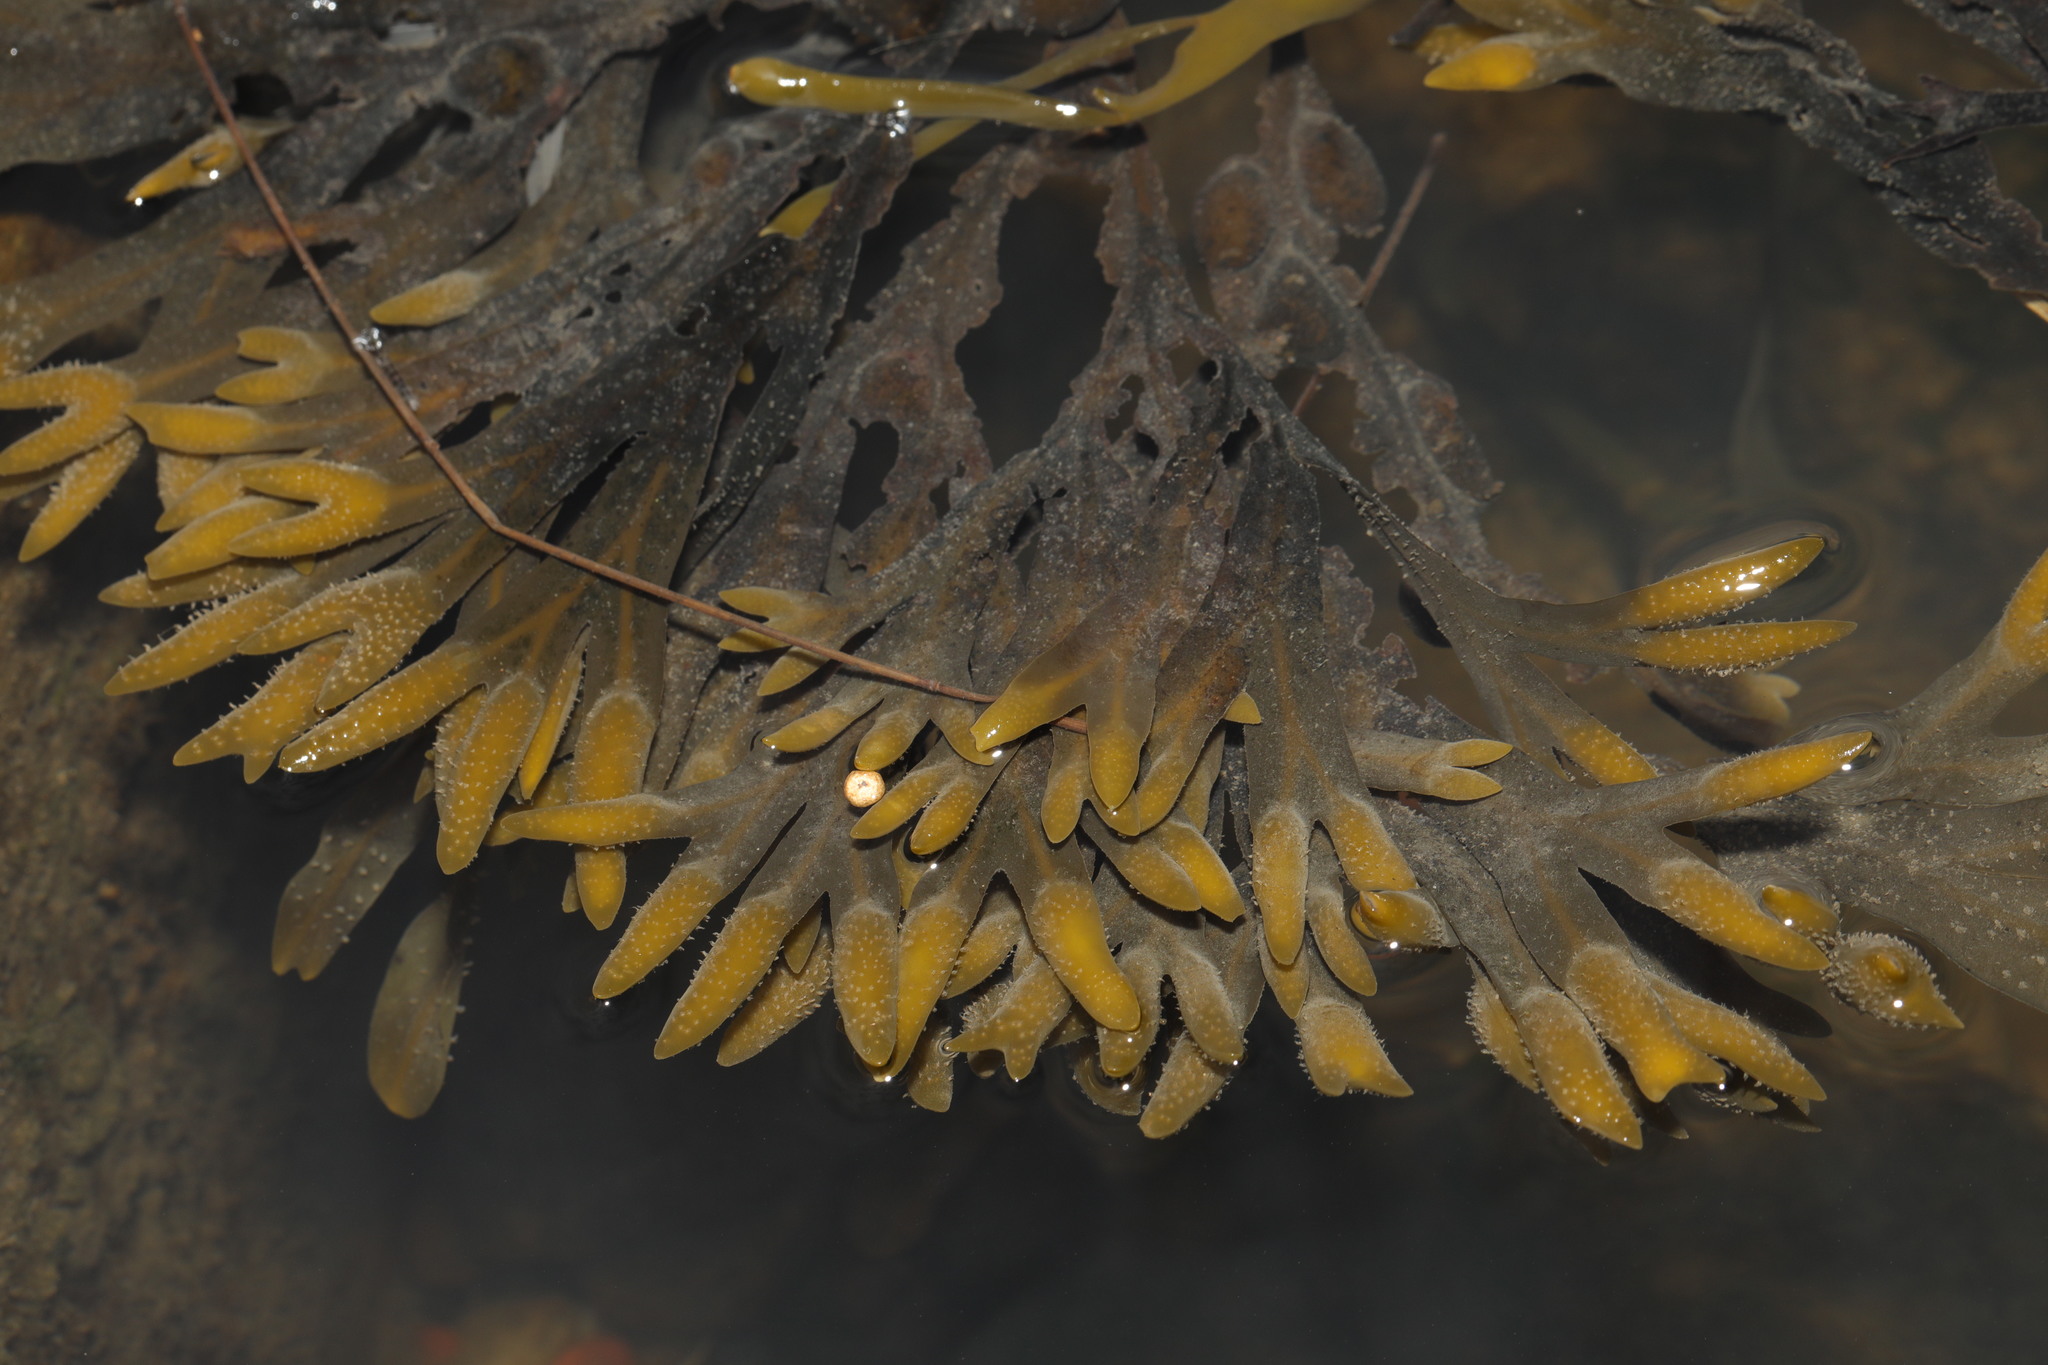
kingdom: Chromista
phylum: Ochrophyta
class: Phaeophyceae
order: Fucales
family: Fucaceae
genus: Fucus
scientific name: Fucus vesiculosus
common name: Bladder wrack
